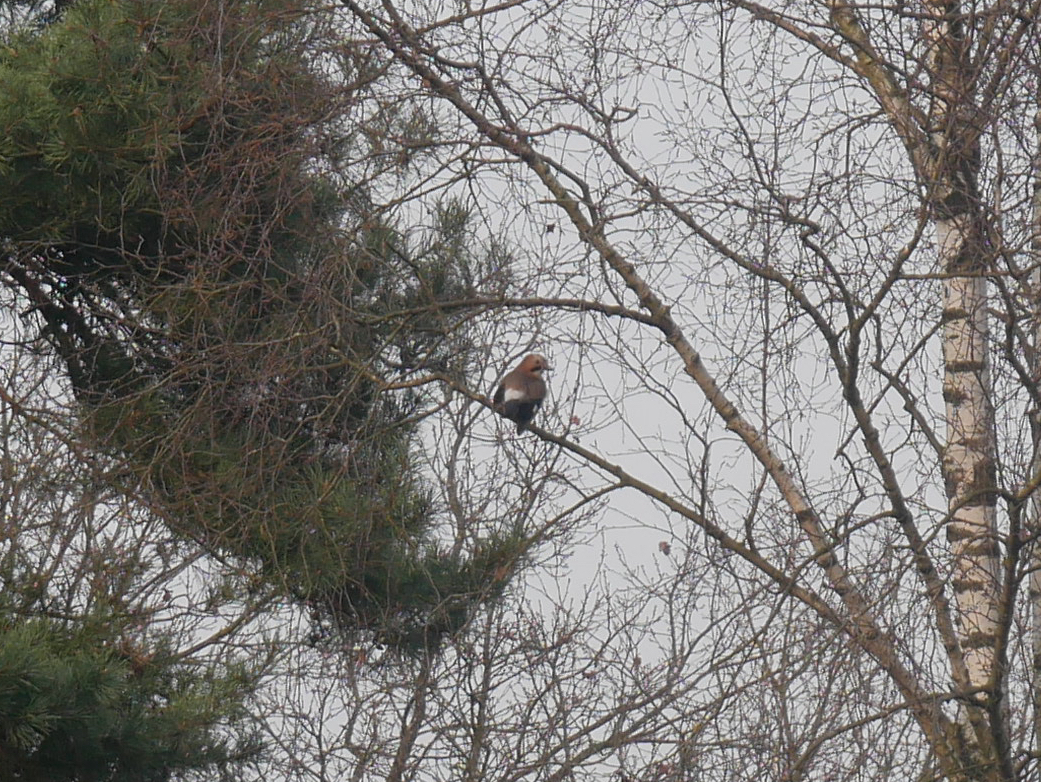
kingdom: Animalia
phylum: Chordata
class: Aves
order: Passeriformes
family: Corvidae
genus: Garrulus
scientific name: Garrulus glandarius
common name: Eurasian jay
